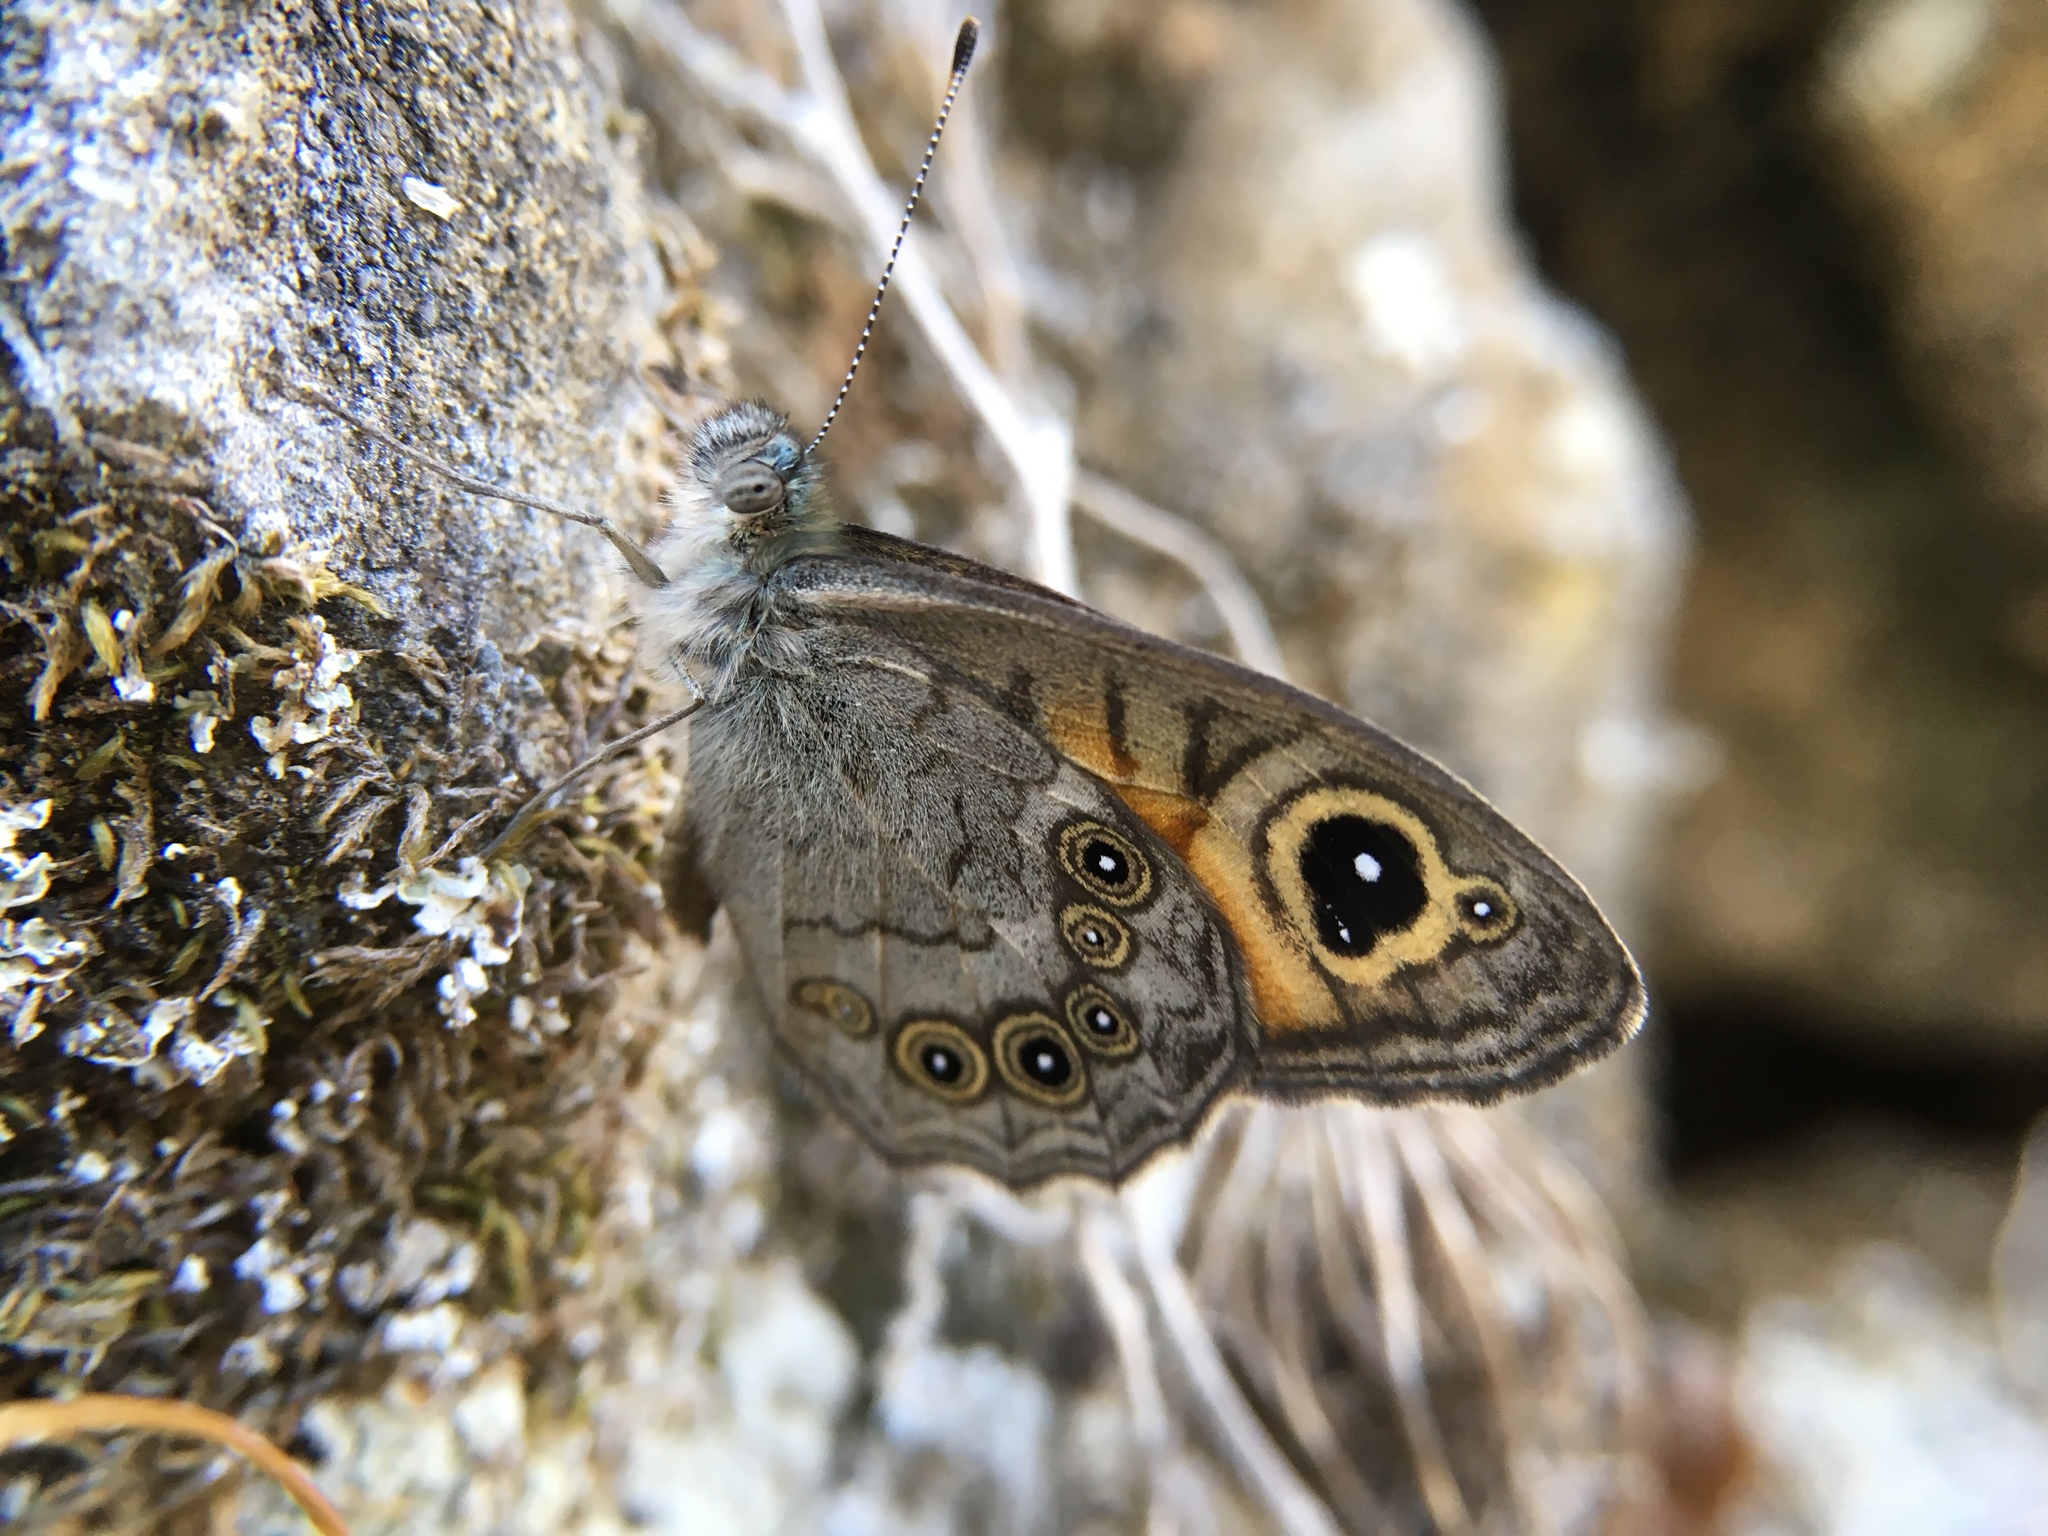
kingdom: Animalia
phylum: Arthropoda
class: Insecta
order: Lepidoptera
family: Nymphalidae
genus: Pararge
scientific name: Pararge Lasiommata maera
